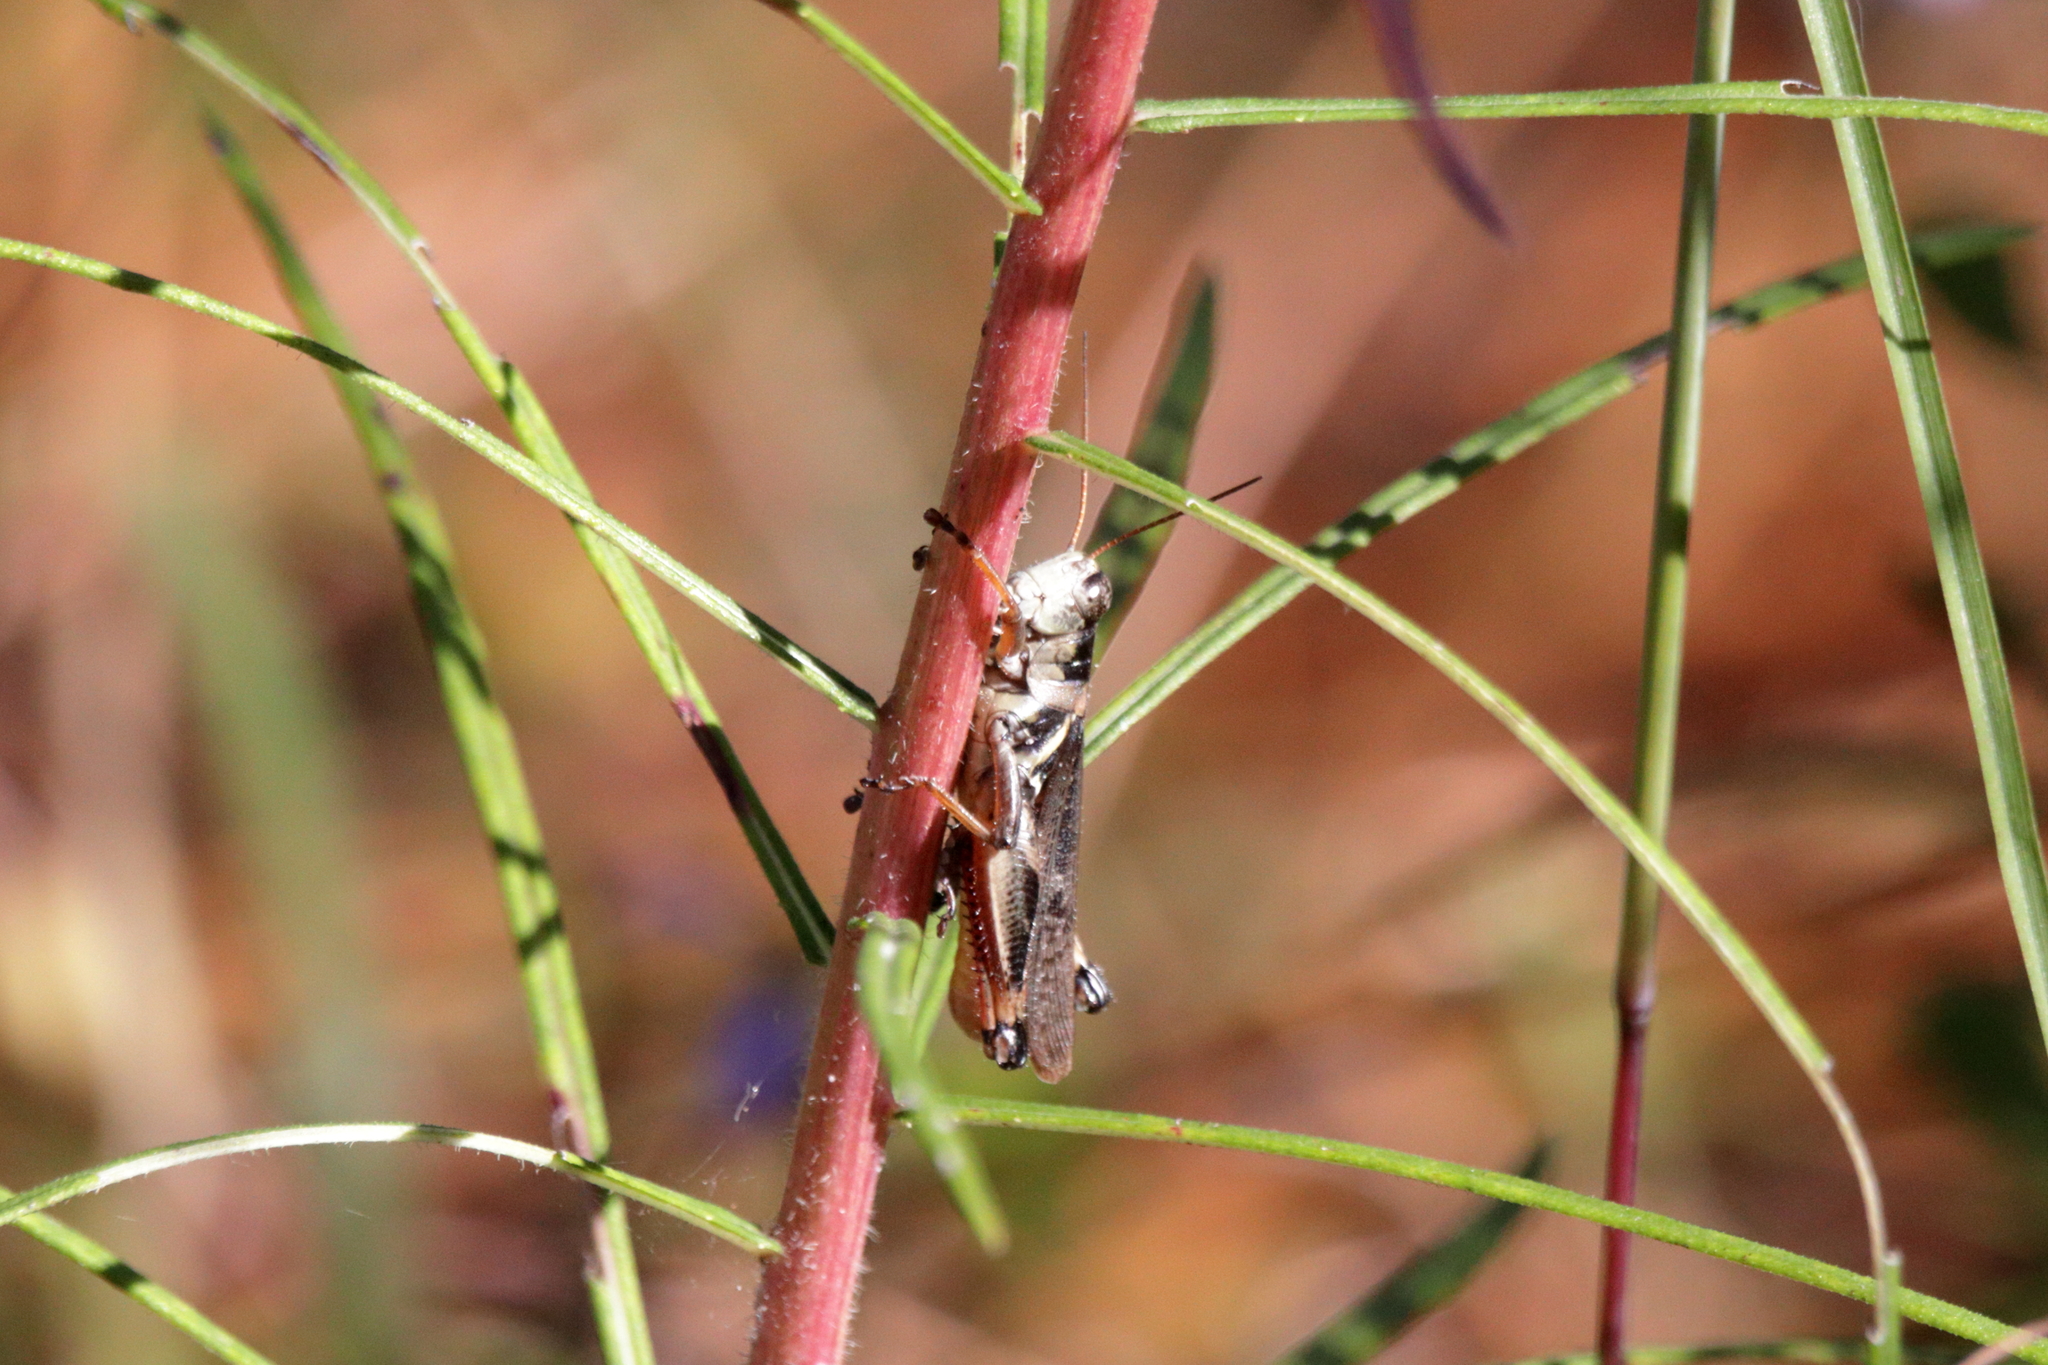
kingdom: Animalia
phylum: Arthropoda
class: Insecta
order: Orthoptera
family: Acrididae
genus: Melanoplus
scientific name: Melanoplus keeleri
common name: Keeler grasshopper
